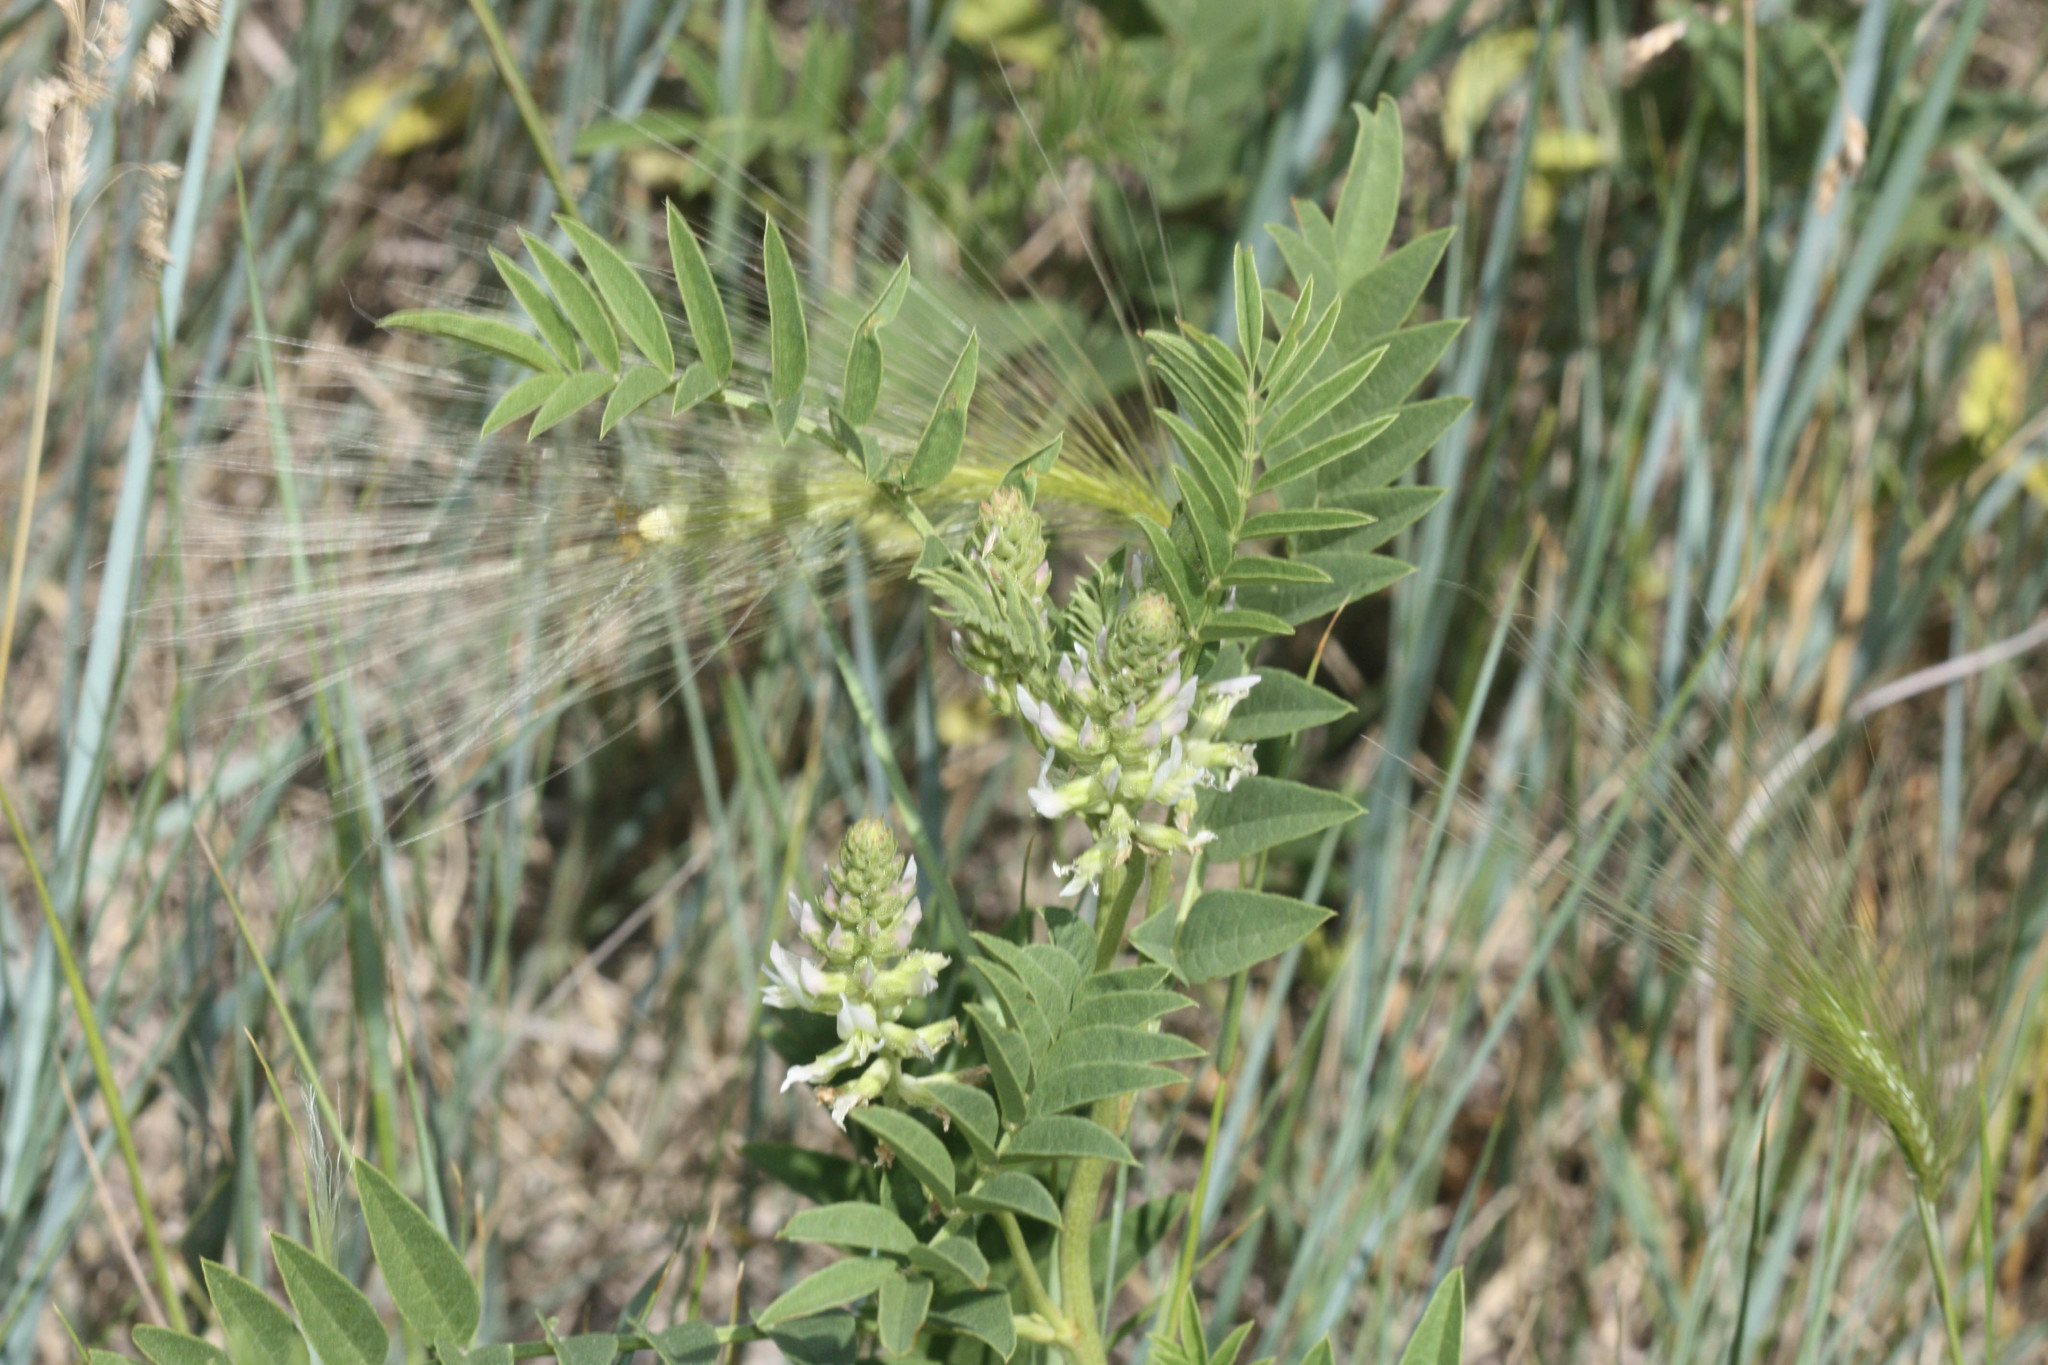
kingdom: Plantae
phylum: Tracheophyta
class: Magnoliopsida
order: Fabales
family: Fabaceae
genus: Glycyrrhiza
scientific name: Glycyrrhiza lepidota
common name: American liquorice
